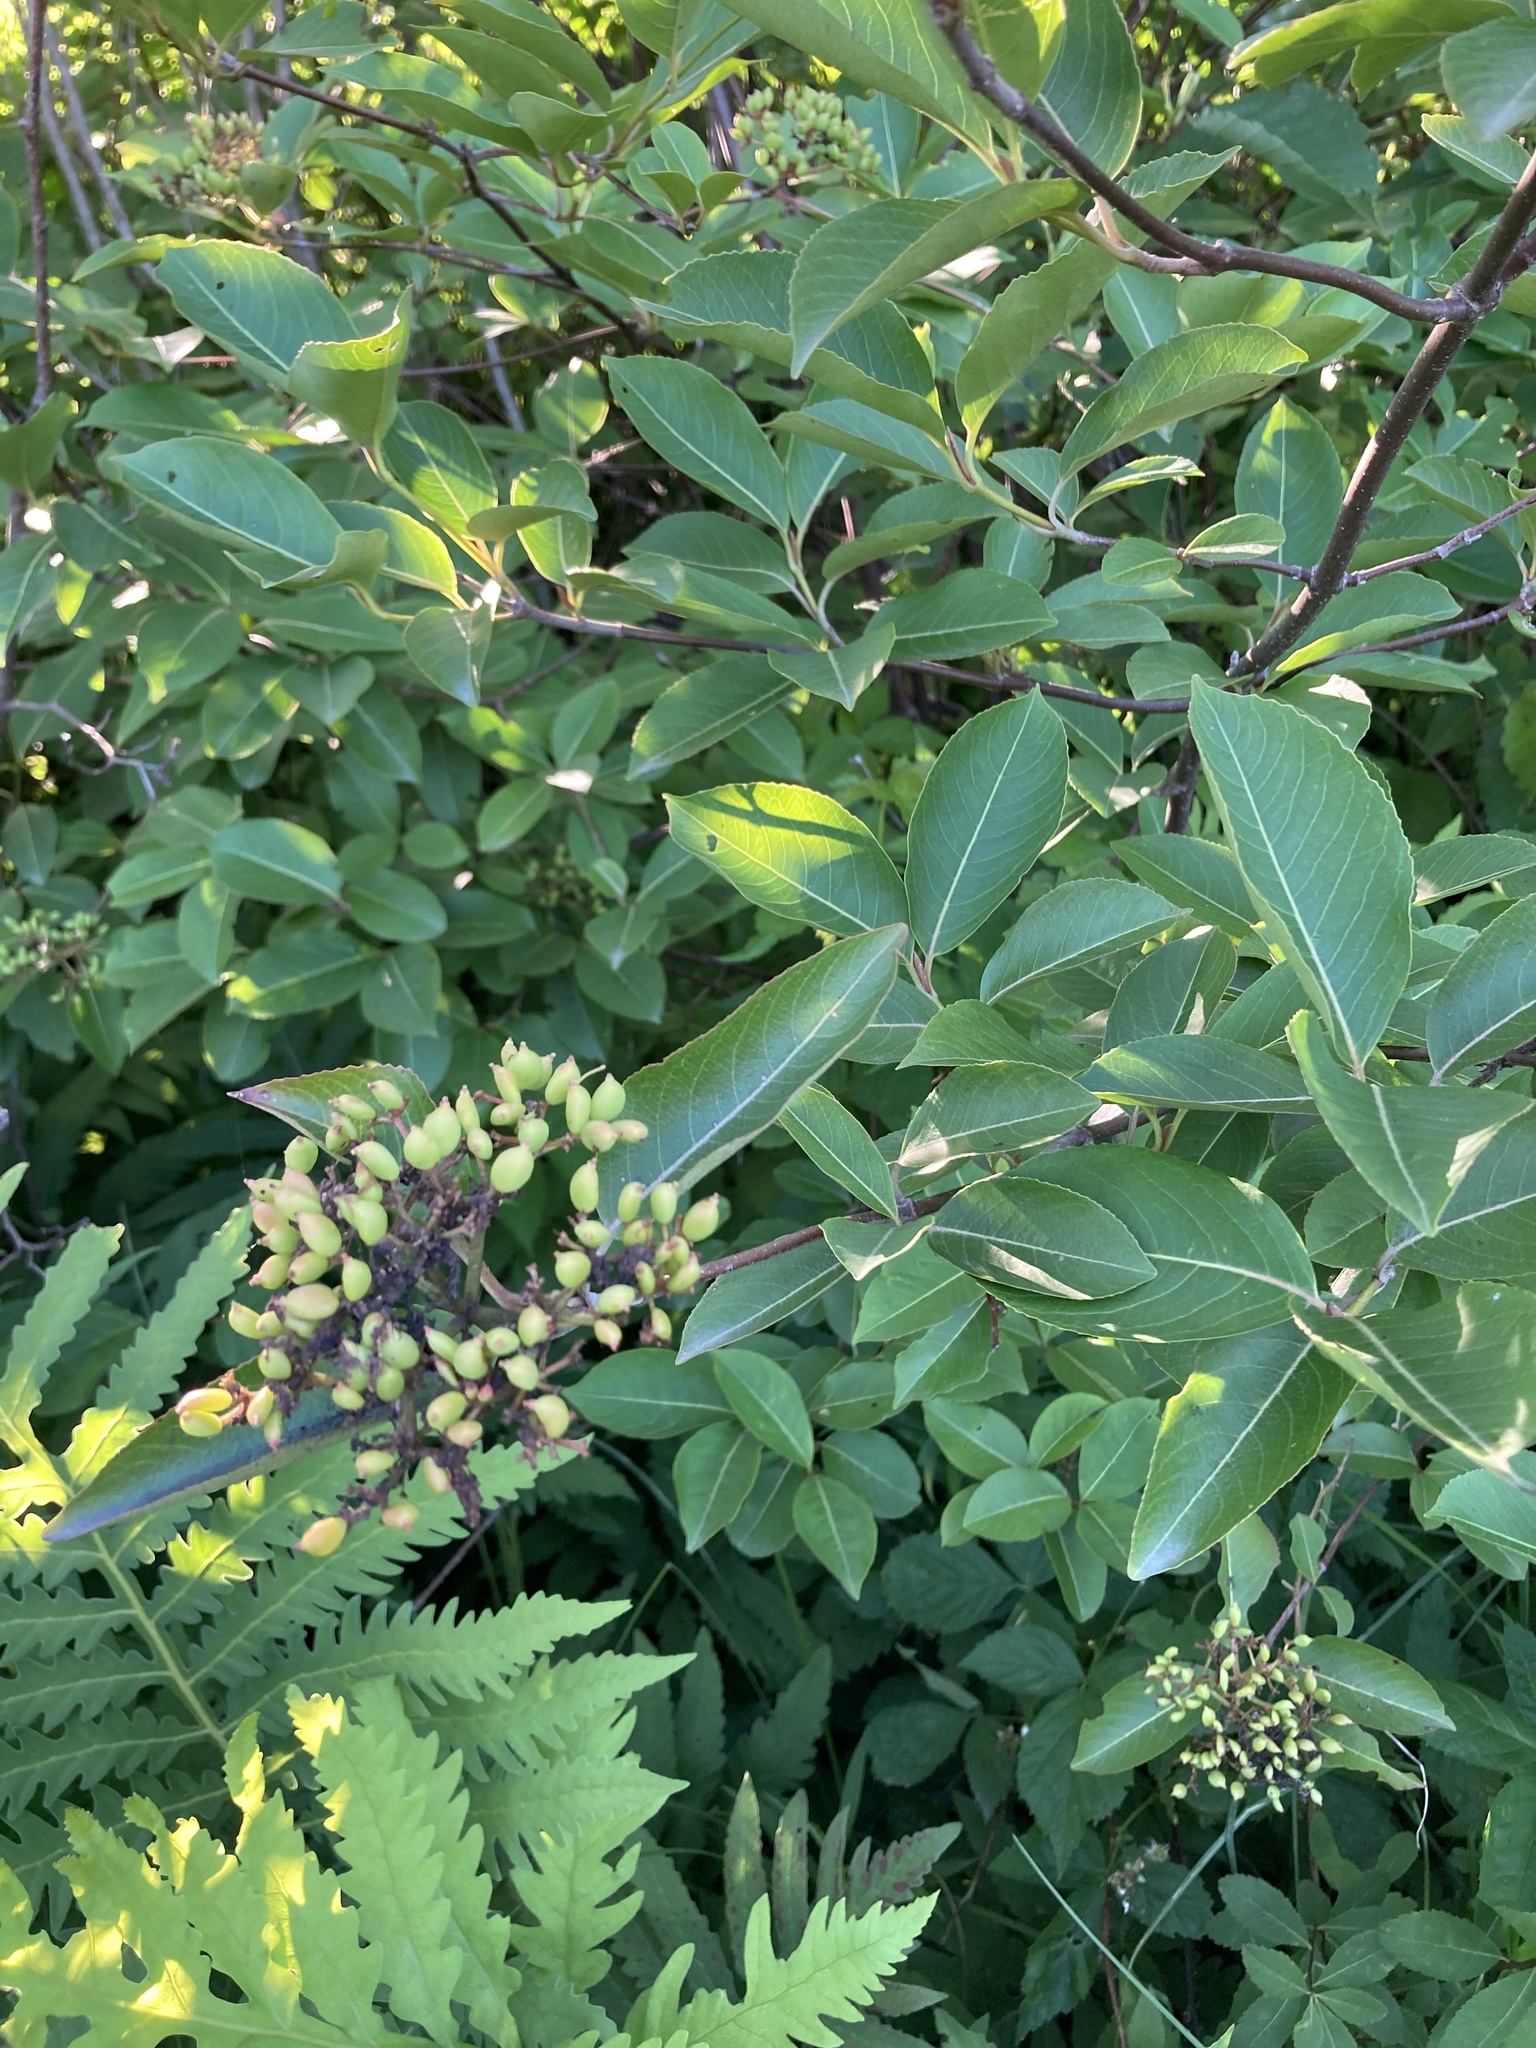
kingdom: Plantae
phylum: Tracheophyta
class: Magnoliopsida
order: Dipsacales
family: Viburnaceae
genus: Viburnum
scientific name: Viburnum cassinoides
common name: Swamp haw
